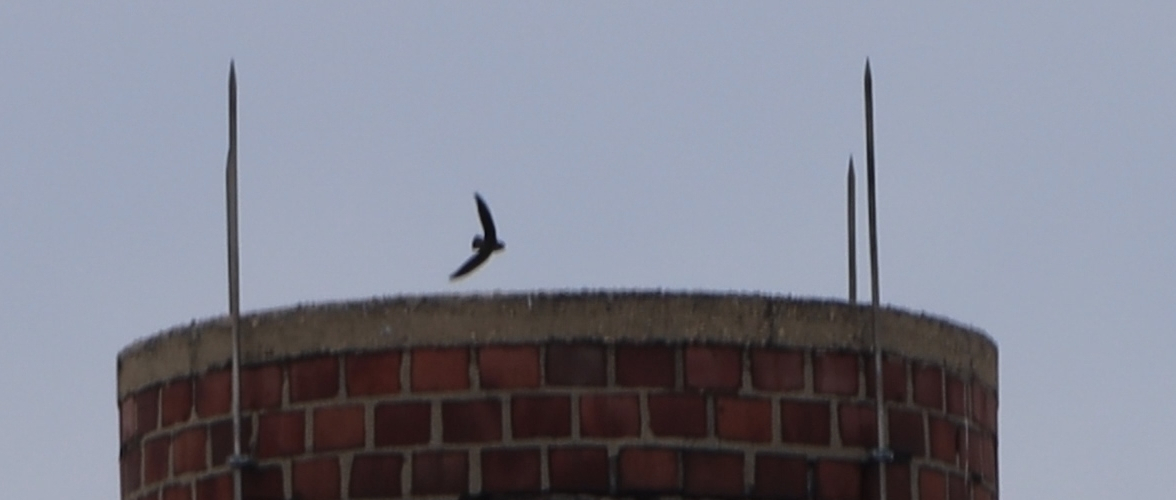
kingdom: Animalia
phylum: Chordata
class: Aves
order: Apodiformes
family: Apodidae
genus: Chaetura
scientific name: Chaetura pelagica
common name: Chimney swift
